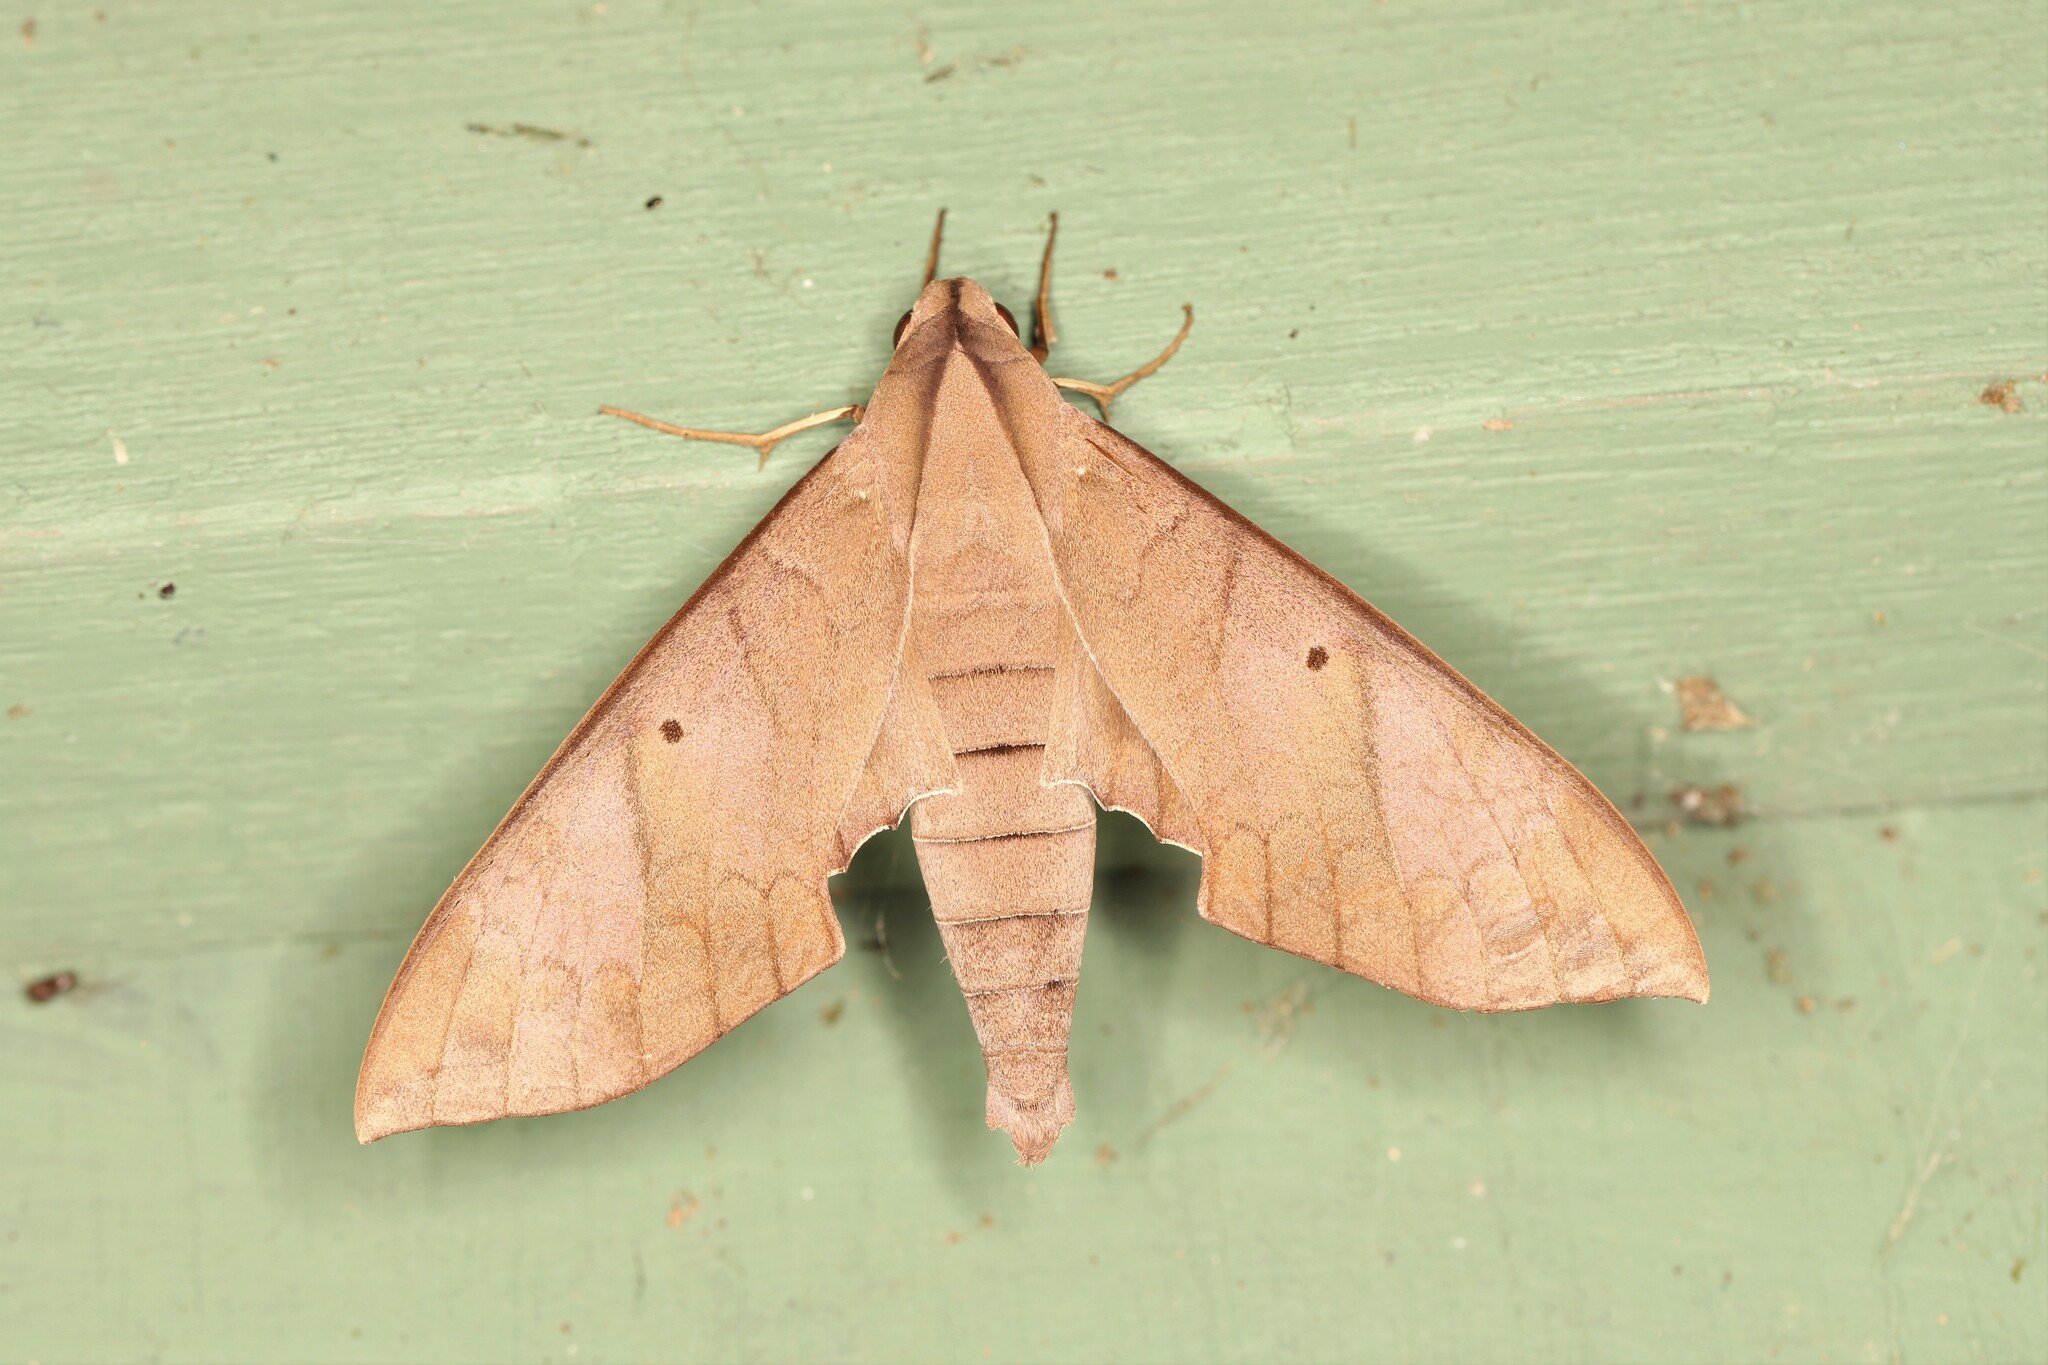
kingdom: Animalia
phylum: Arthropoda
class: Insecta
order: Lepidoptera
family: Sphingidae
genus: Pachylia
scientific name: Pachylia darceta
